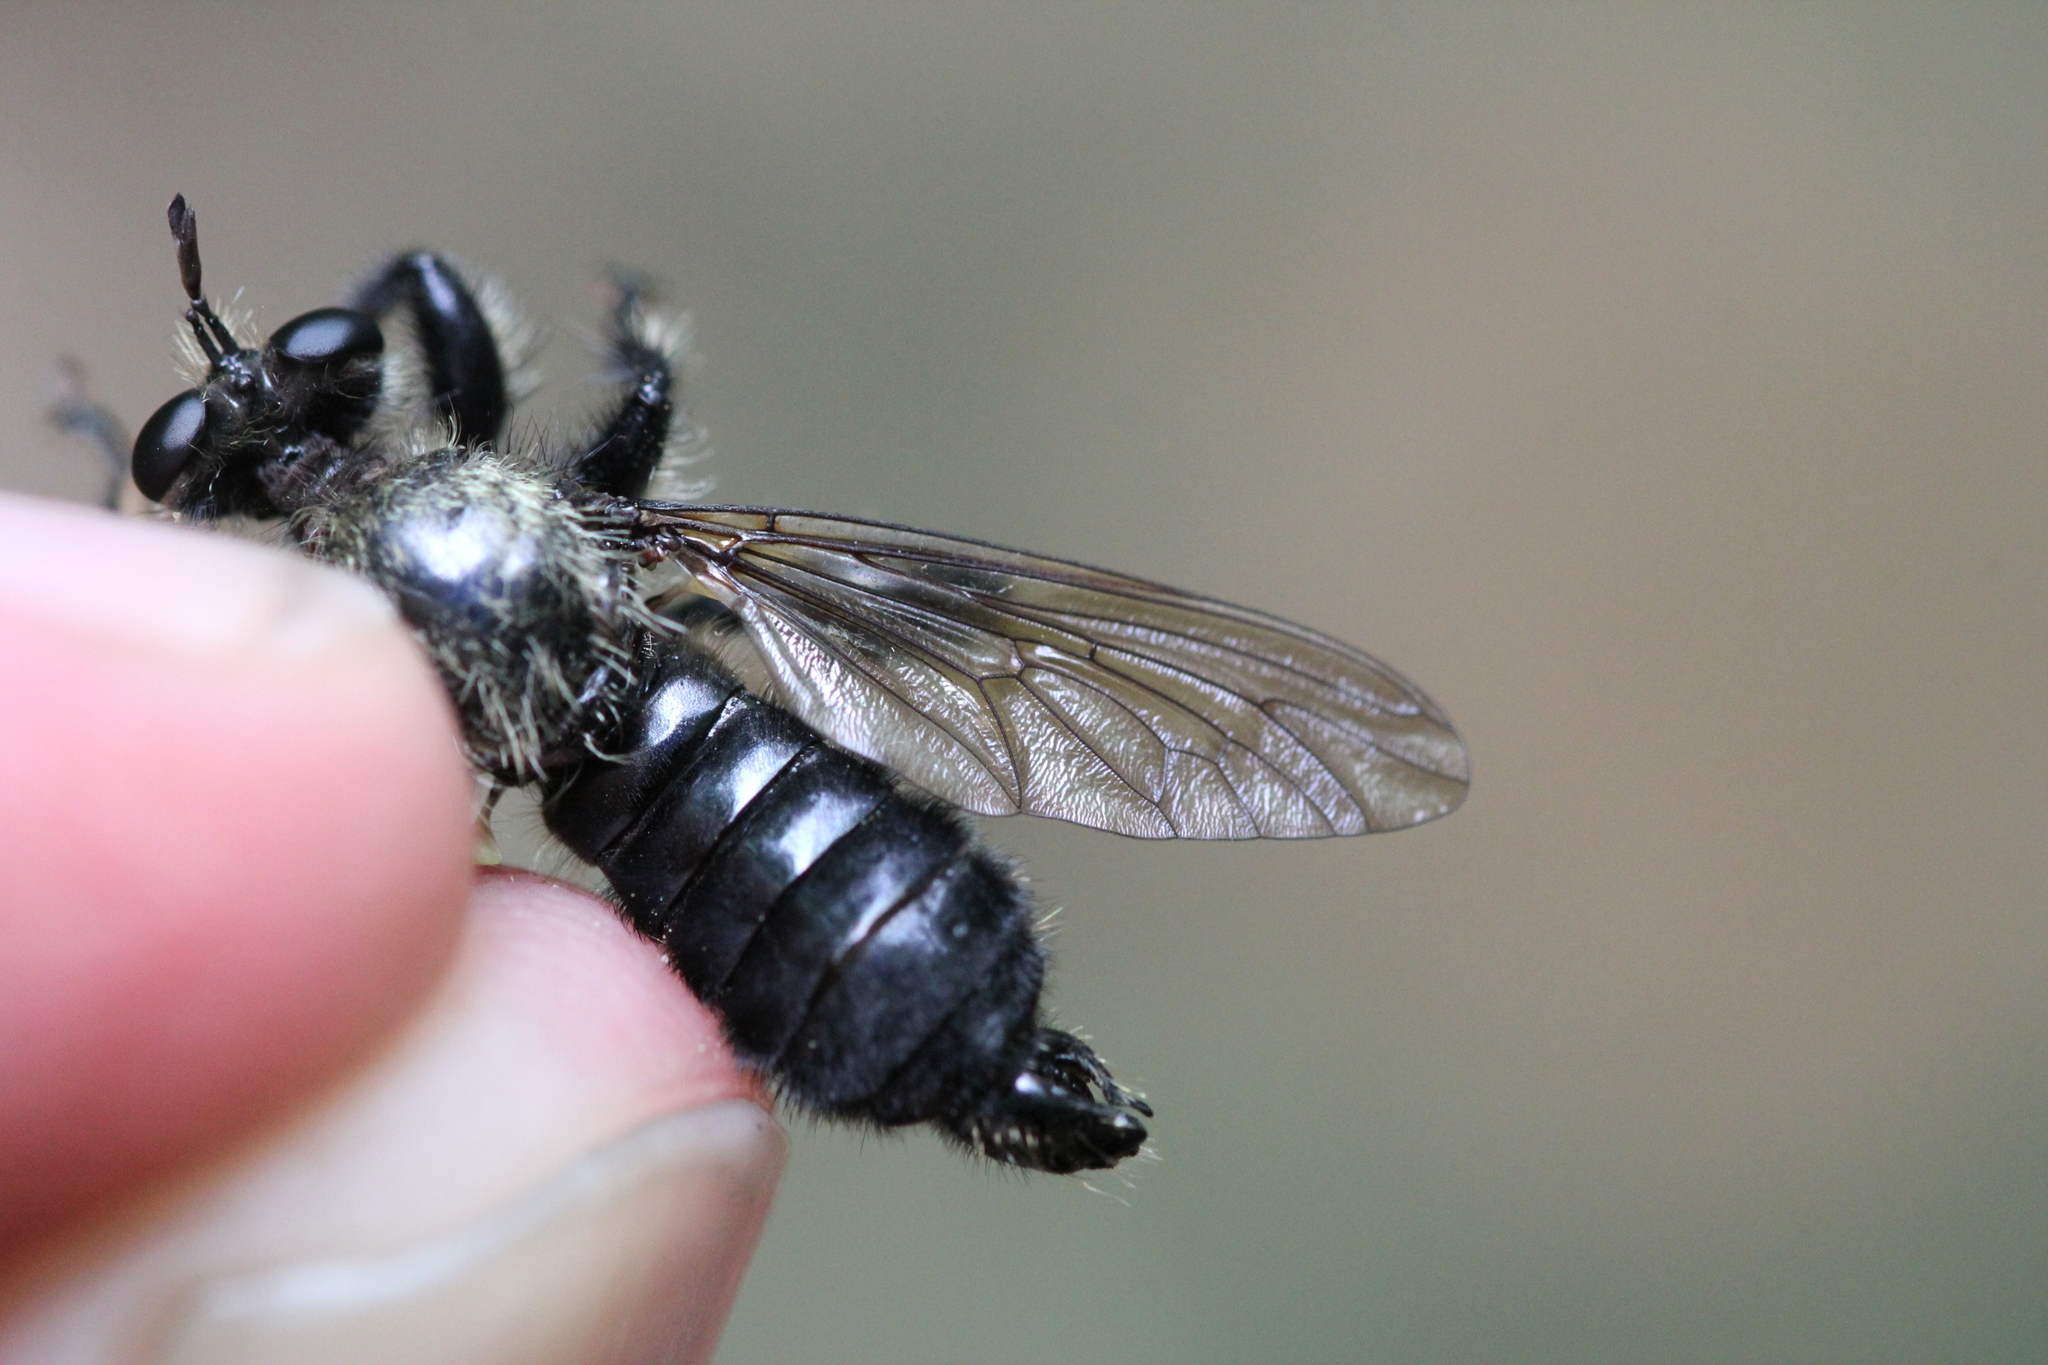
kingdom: Animalia
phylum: Arthropoda
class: Insecta
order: Diptera
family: Asilidae
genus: Laphria
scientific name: Laphria flavicollis
